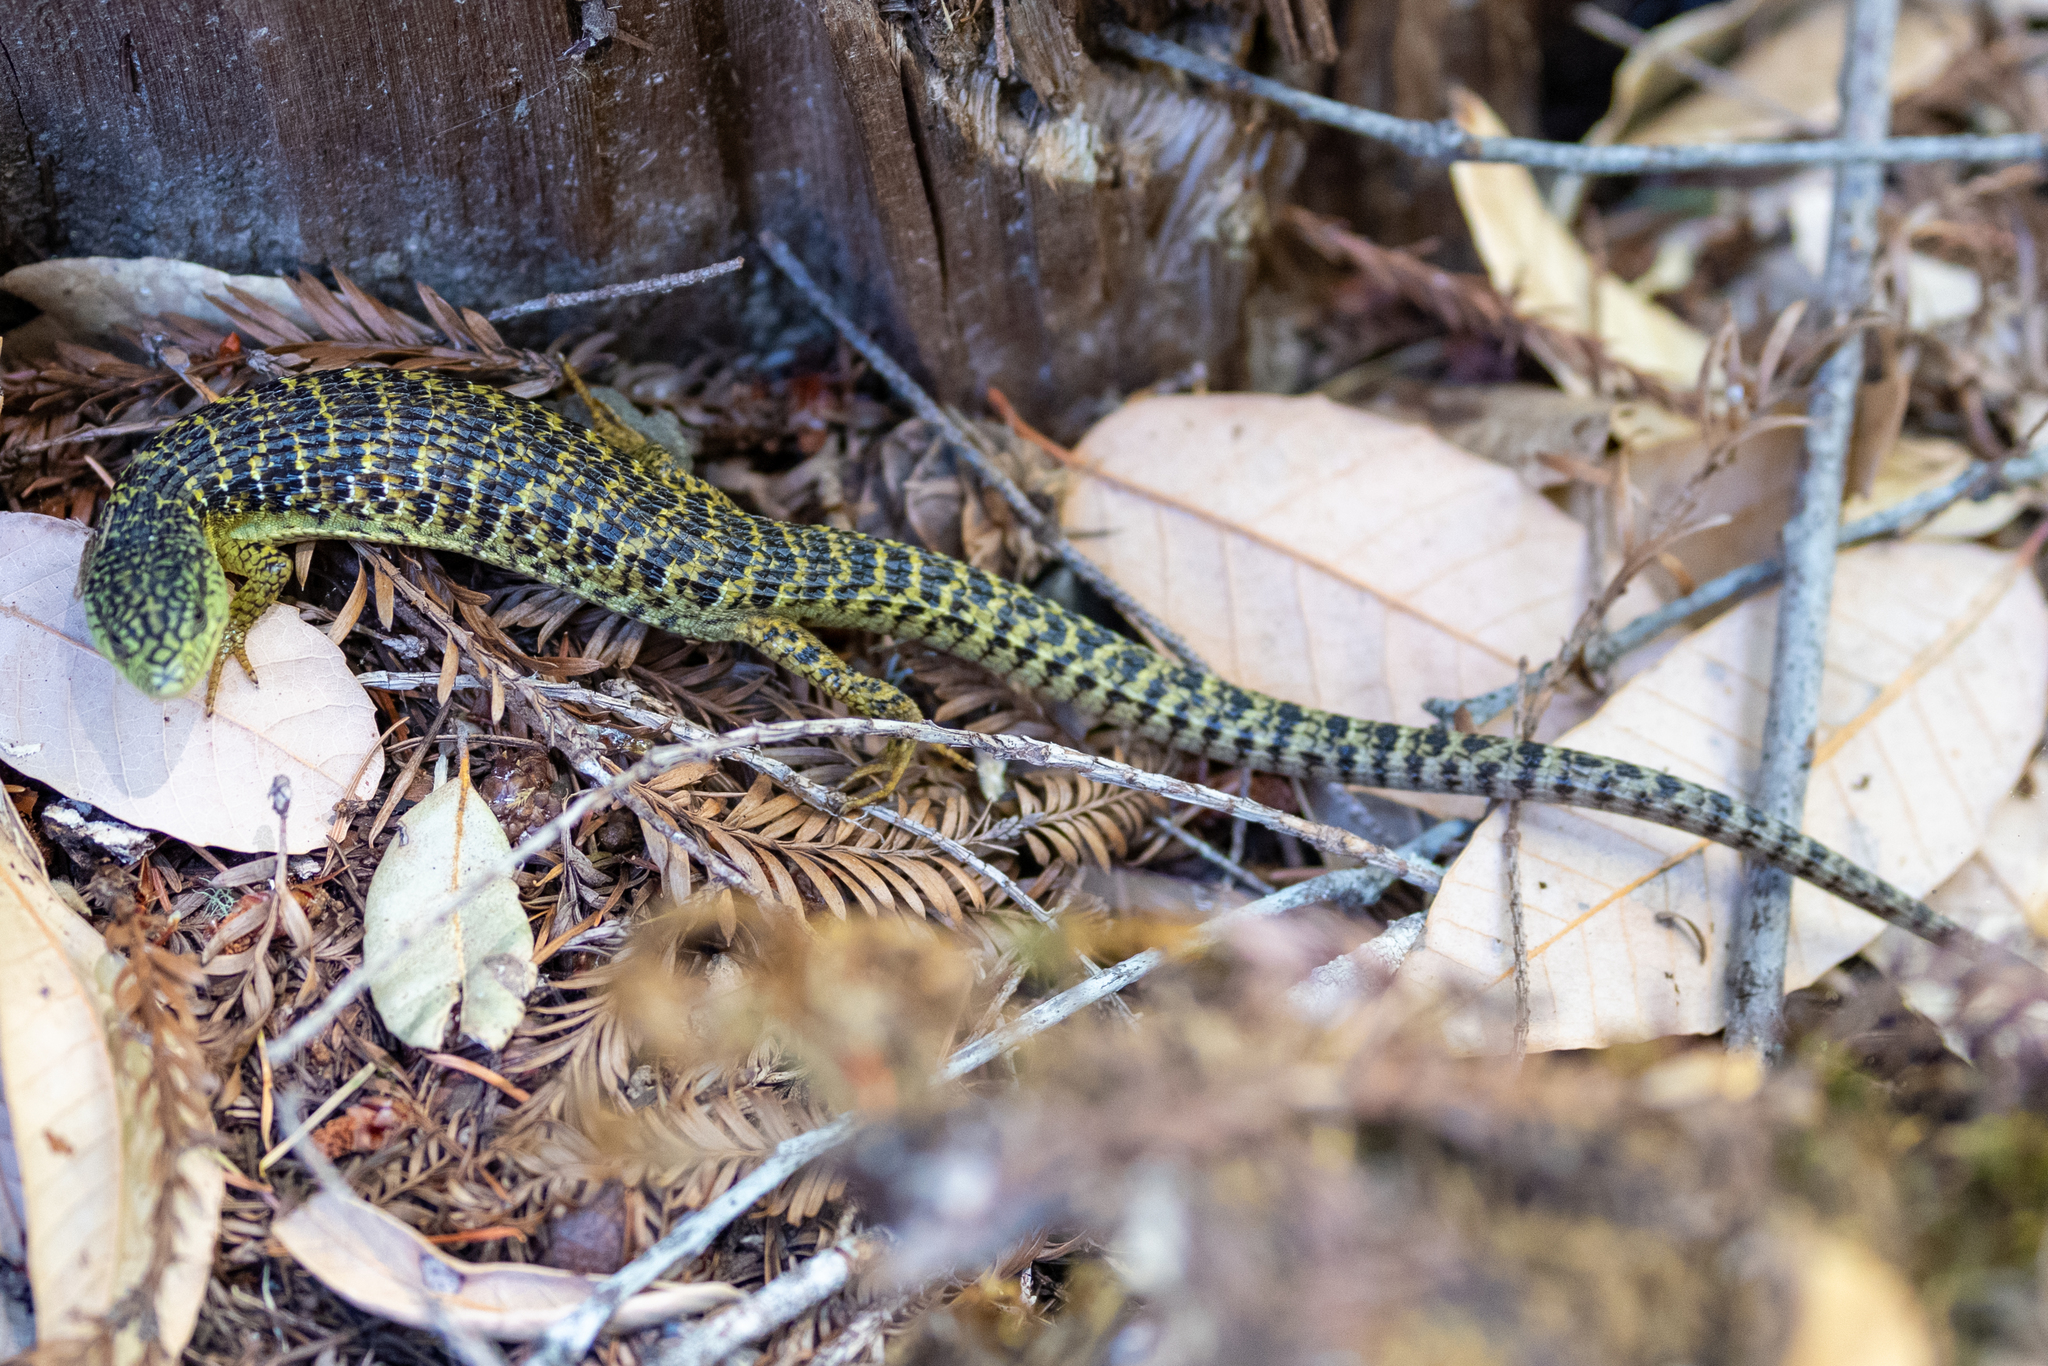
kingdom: Animalia
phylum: Chordata
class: Squamata
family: Anguidae
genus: Elgaria
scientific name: Elgaria coerulea
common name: Northern alligator lizard
